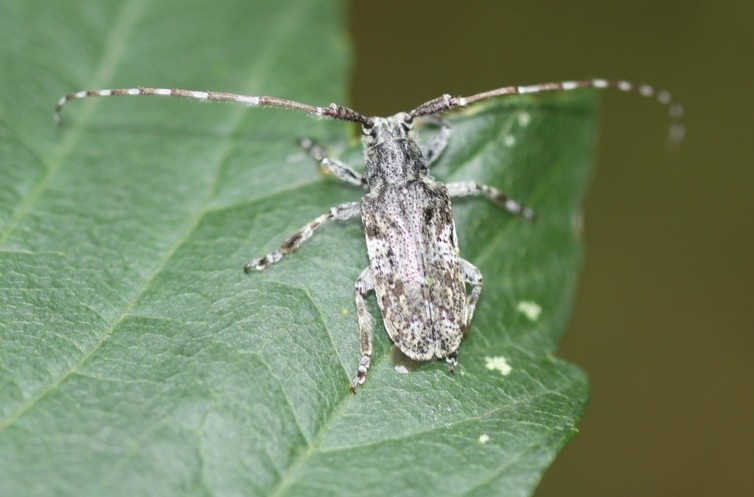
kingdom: Animalia
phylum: Arthropoda
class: Insecta
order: Coleoptera
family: Cerambycidae
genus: Mesosa
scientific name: Mesosa nebulosa
